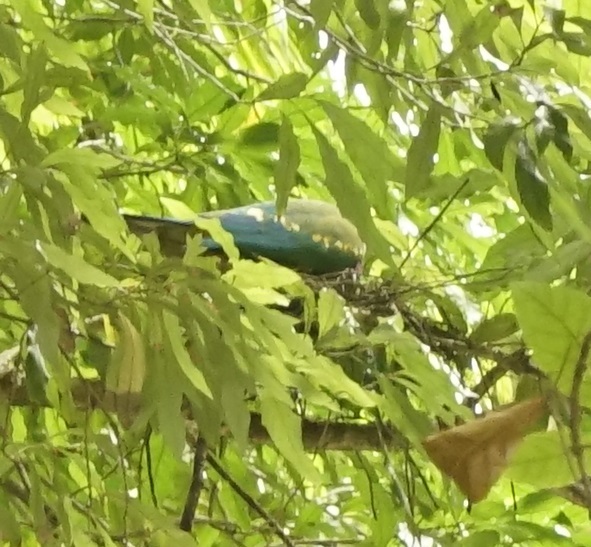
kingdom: Animalia
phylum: Chordata
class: Aves
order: Columbiformes
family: Columbidae
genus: Ptilinopus
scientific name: Ptilinopus magnificus
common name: Wompoo fruit dove
